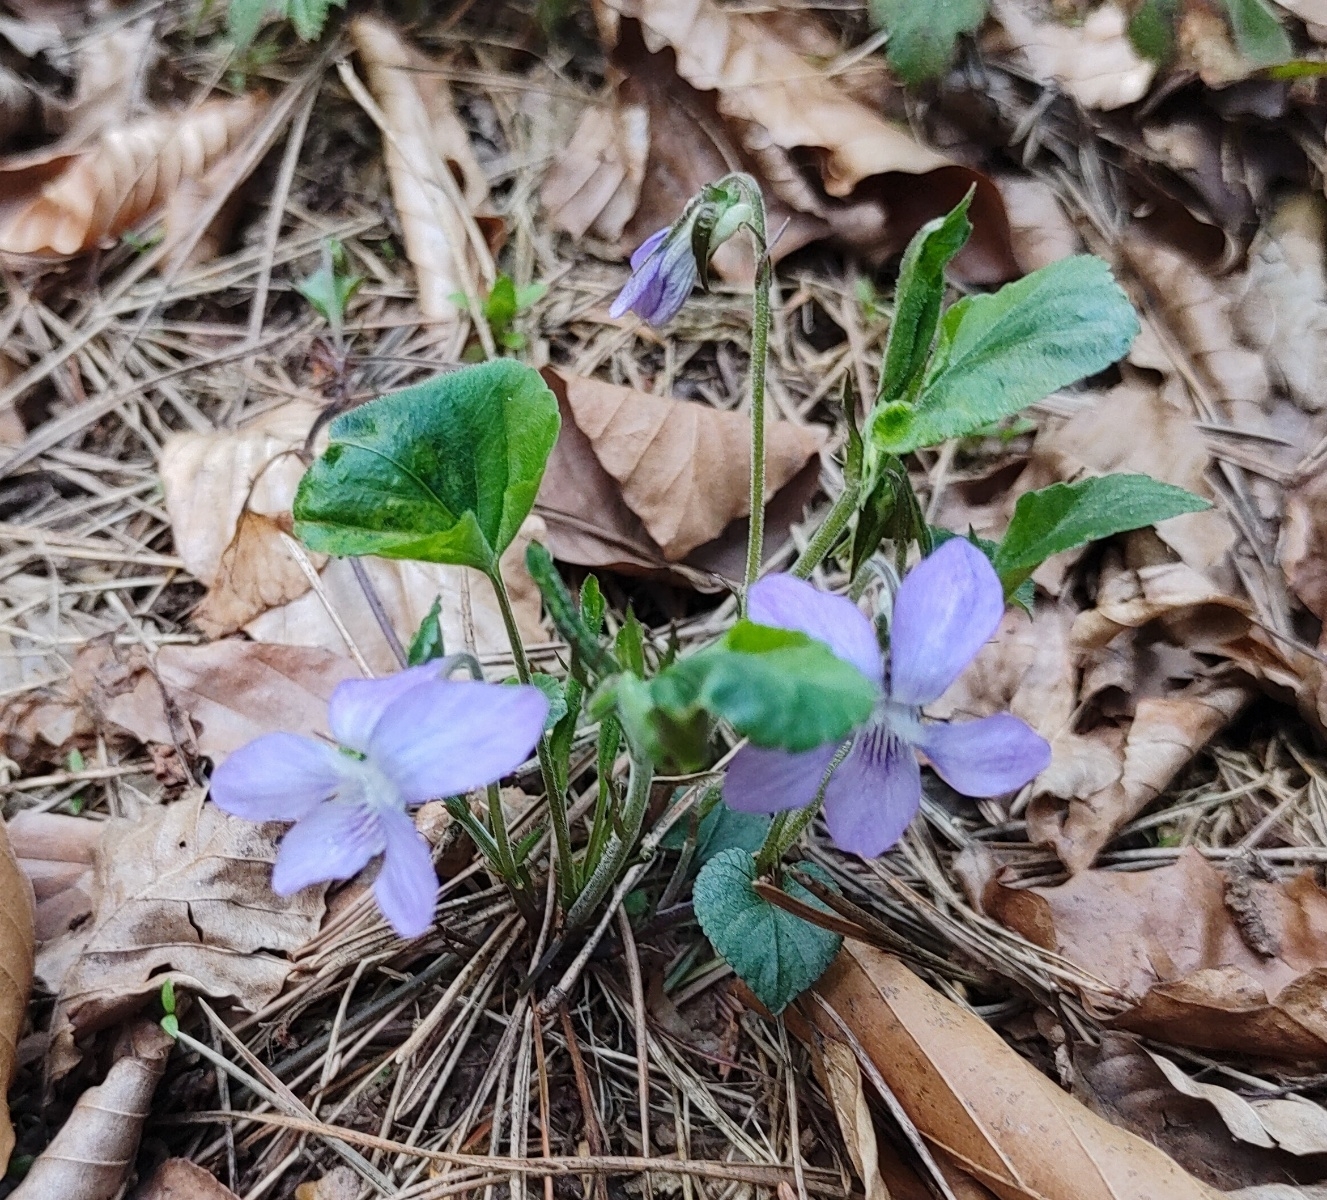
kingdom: Plantae
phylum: Tracheophyta
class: Magnoliopsida
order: Malpighiales
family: Violaceae
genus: Viola
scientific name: Viola riviniana
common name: Common dog-violet
